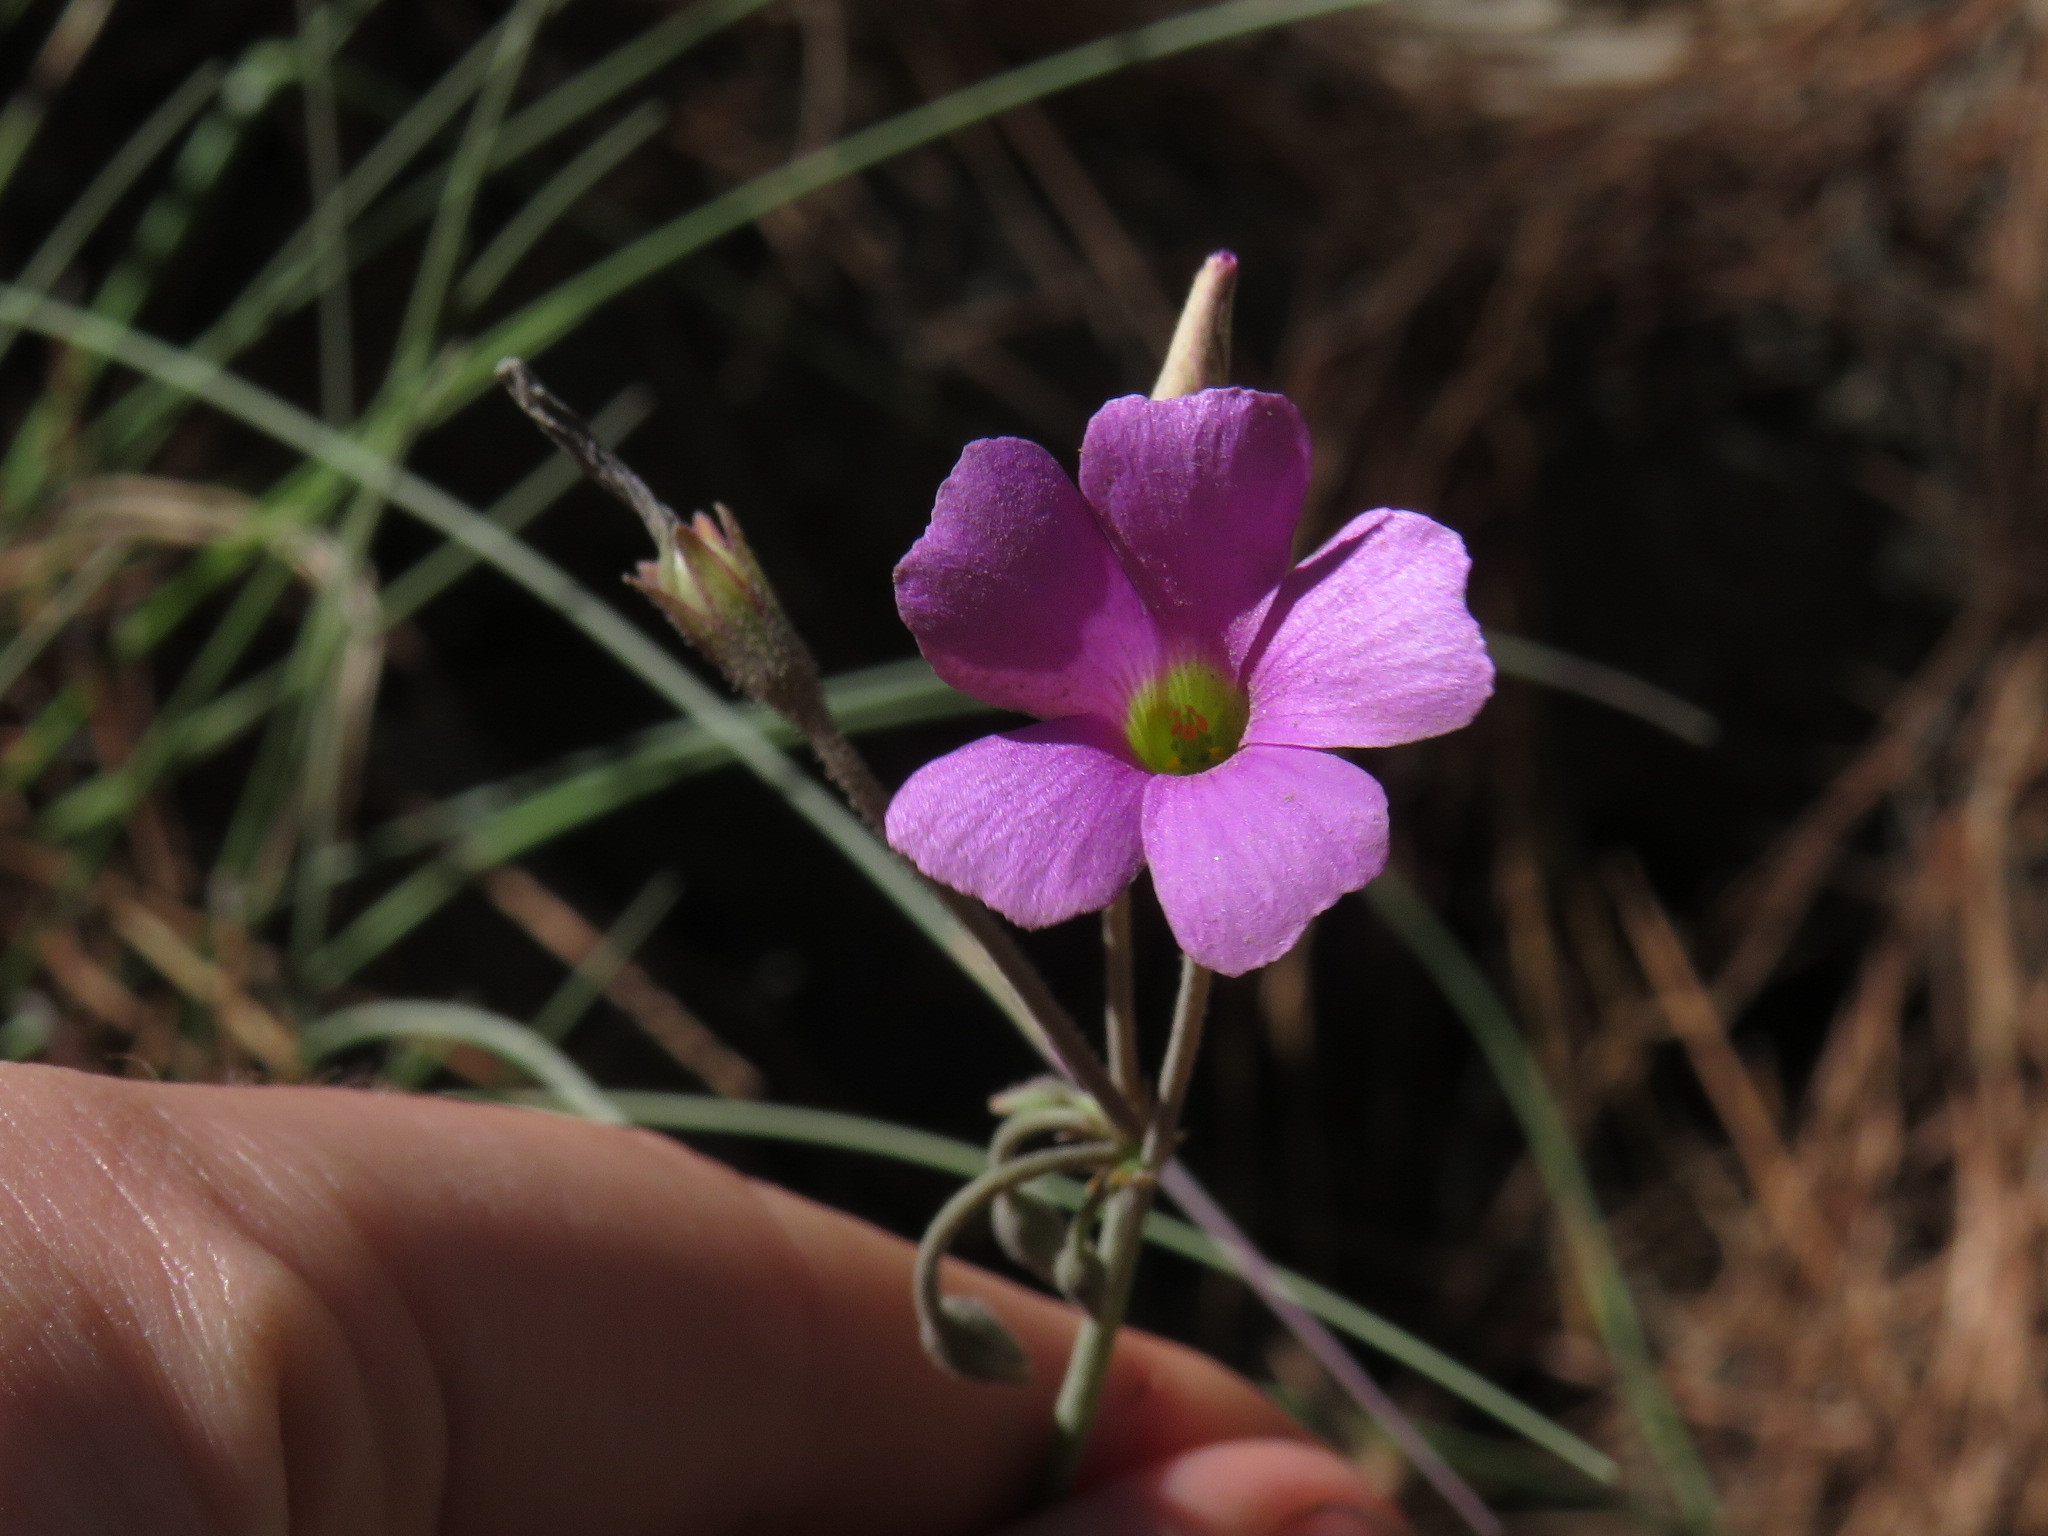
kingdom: Plantae
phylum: Tracheophyta
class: Magnoliopsida
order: Oxalidales
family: Oxalidaceae
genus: Oxalis
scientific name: Oxalis livida
